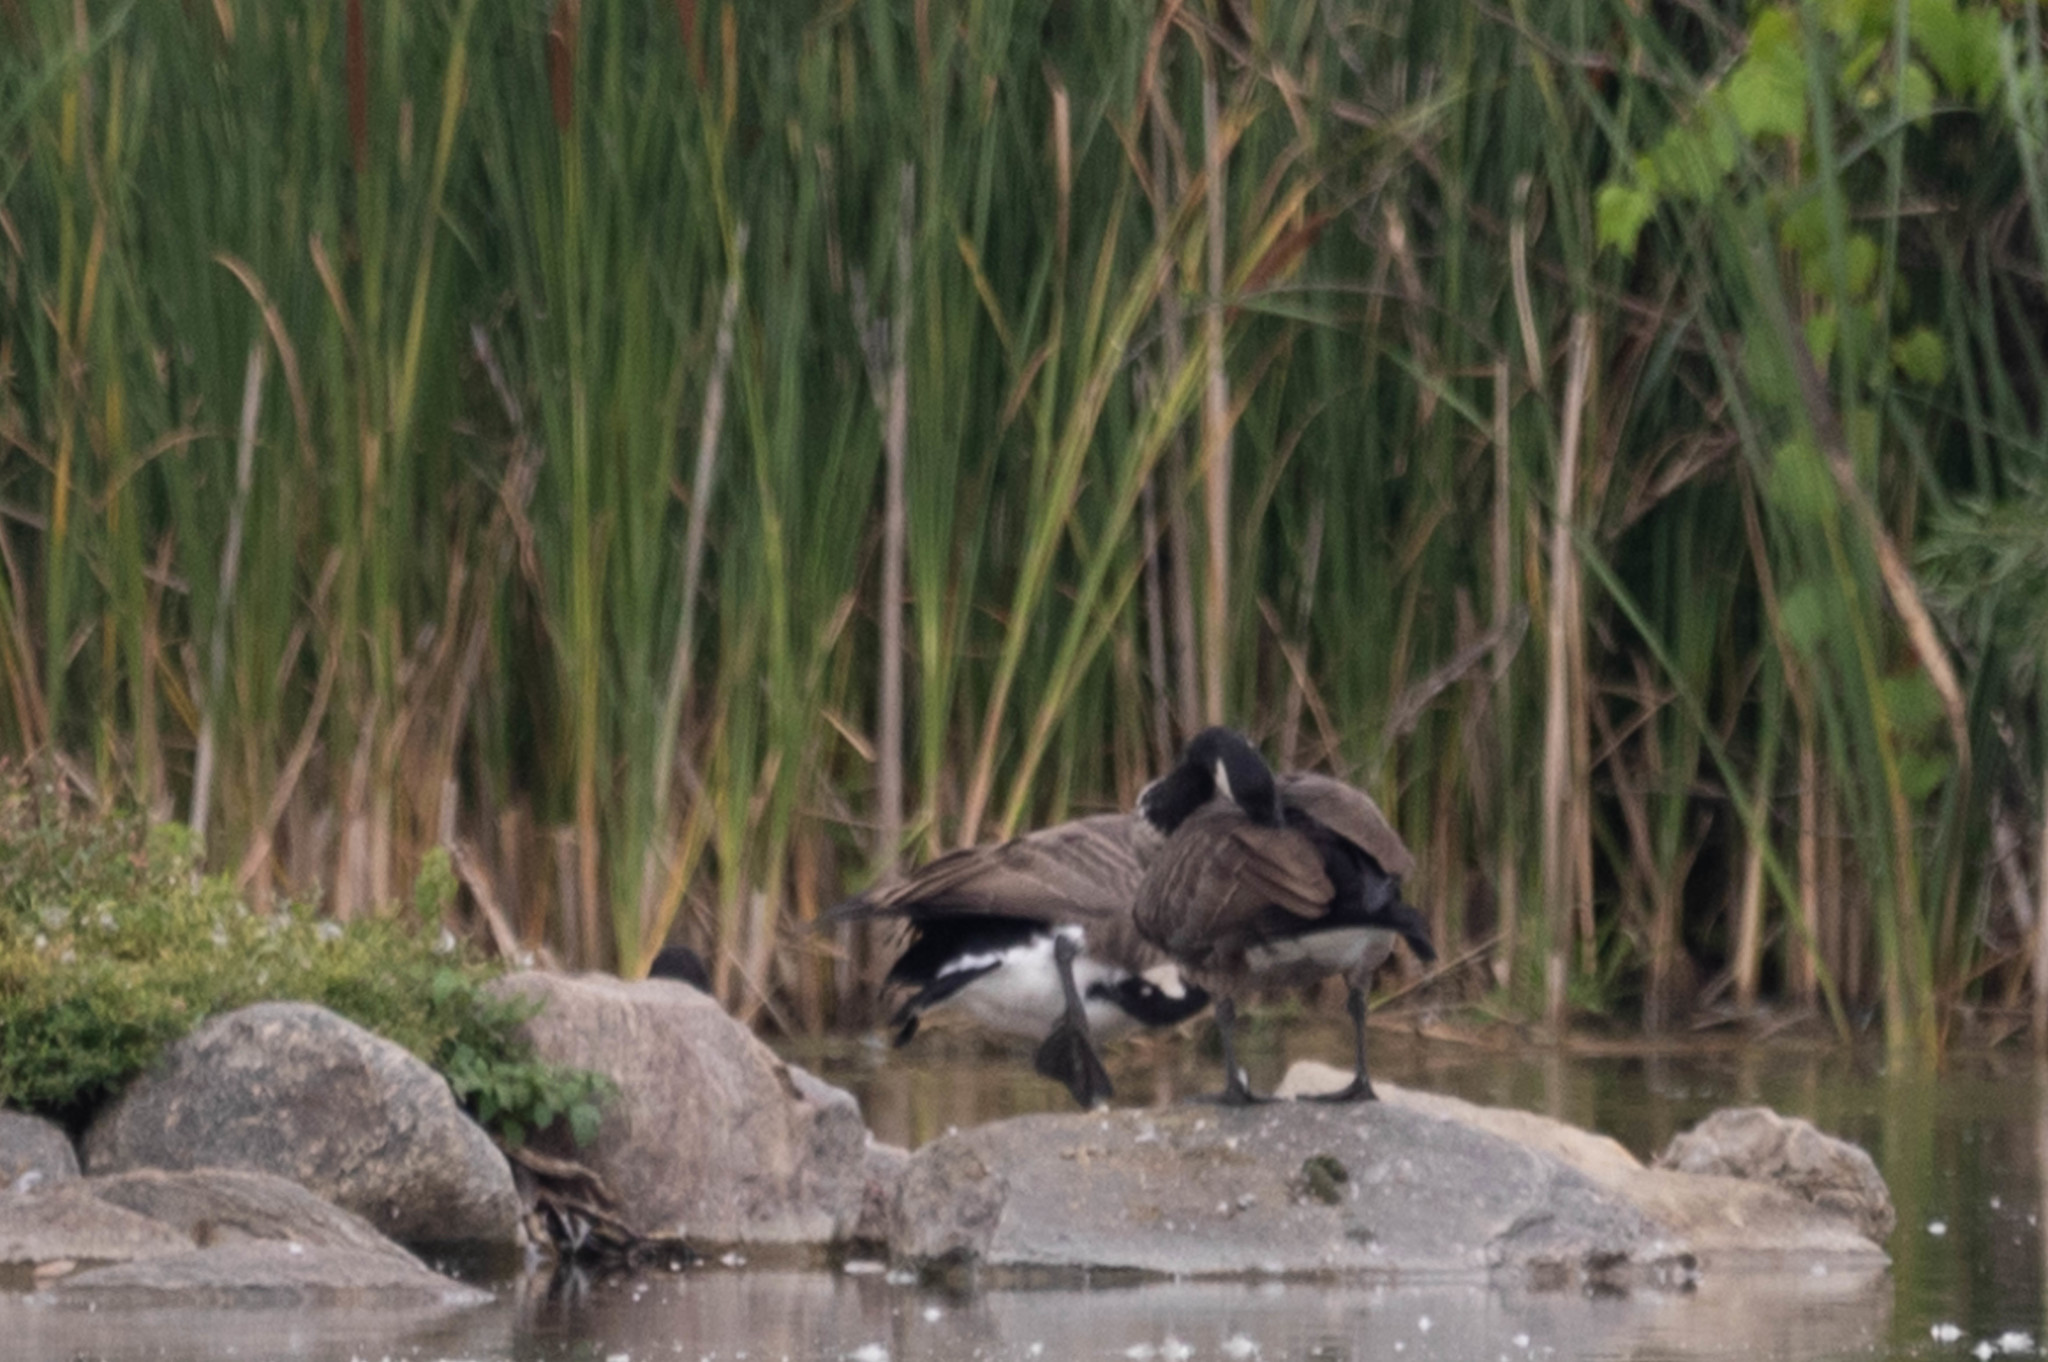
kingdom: Animalia
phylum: Chordata
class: Aves
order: Anseriformes
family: Anatidae
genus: Branta
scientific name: Branta canadensis
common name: Canada goose
